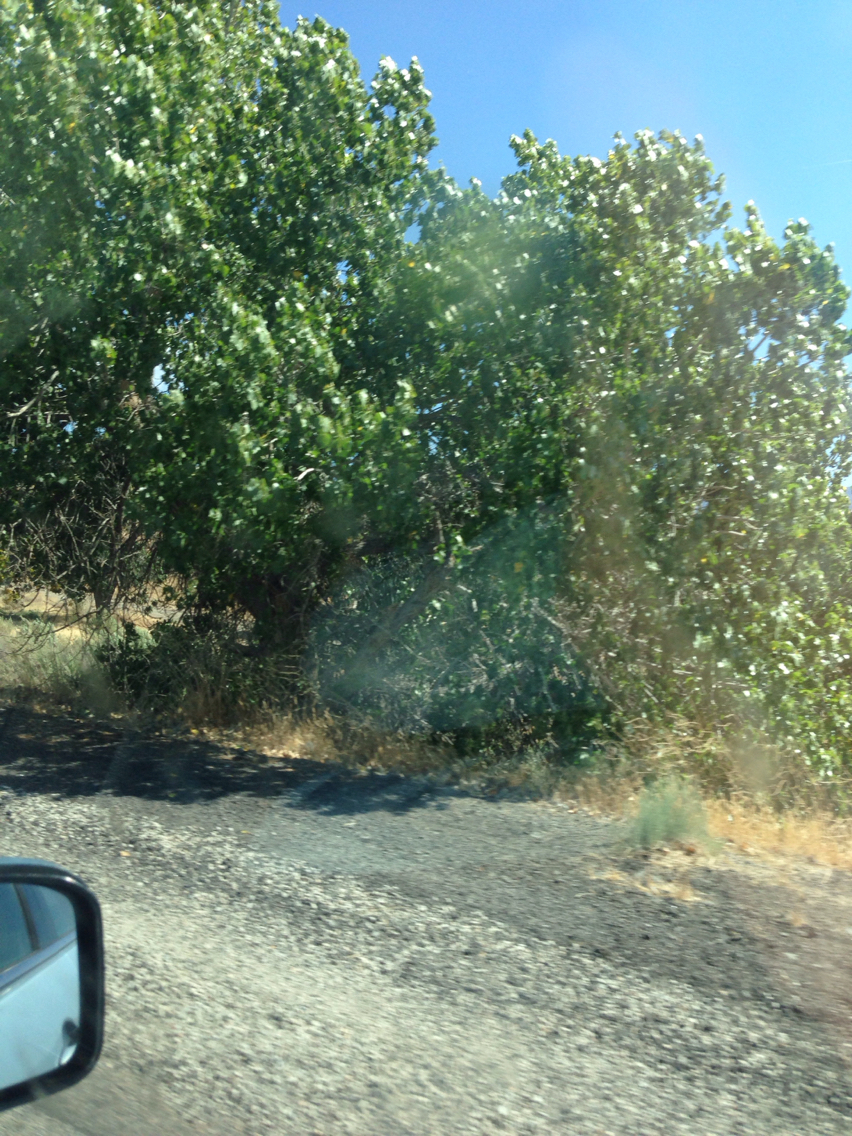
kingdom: Plantae
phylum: Tracheophyta
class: Magnoliopsida
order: Malpighiales
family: Salicaceae
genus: Populus
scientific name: Populus fremontii
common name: Fremont's cottonwood
